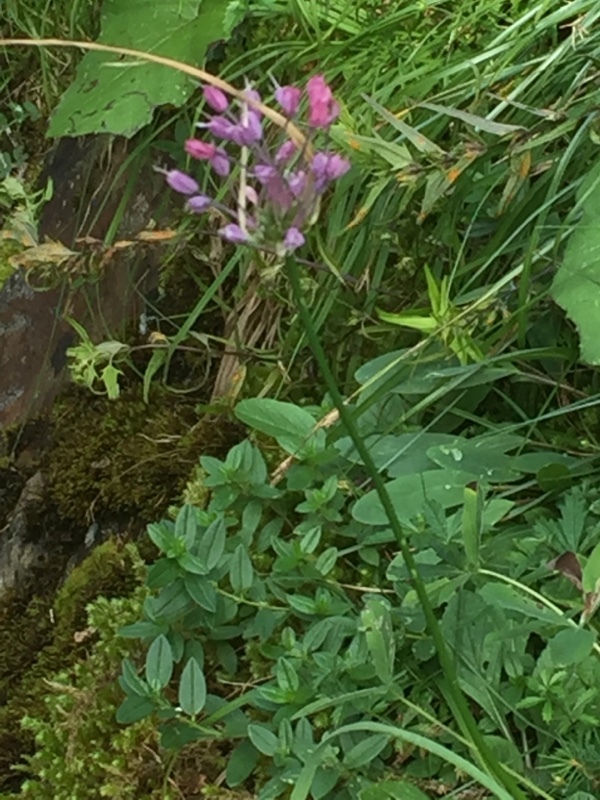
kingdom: Plantae
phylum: Tracheophyta
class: Liliopsida
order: Asparagales
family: Amaryllidaceae
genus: Allium
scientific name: Allium carinatum
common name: Keeled garlic
